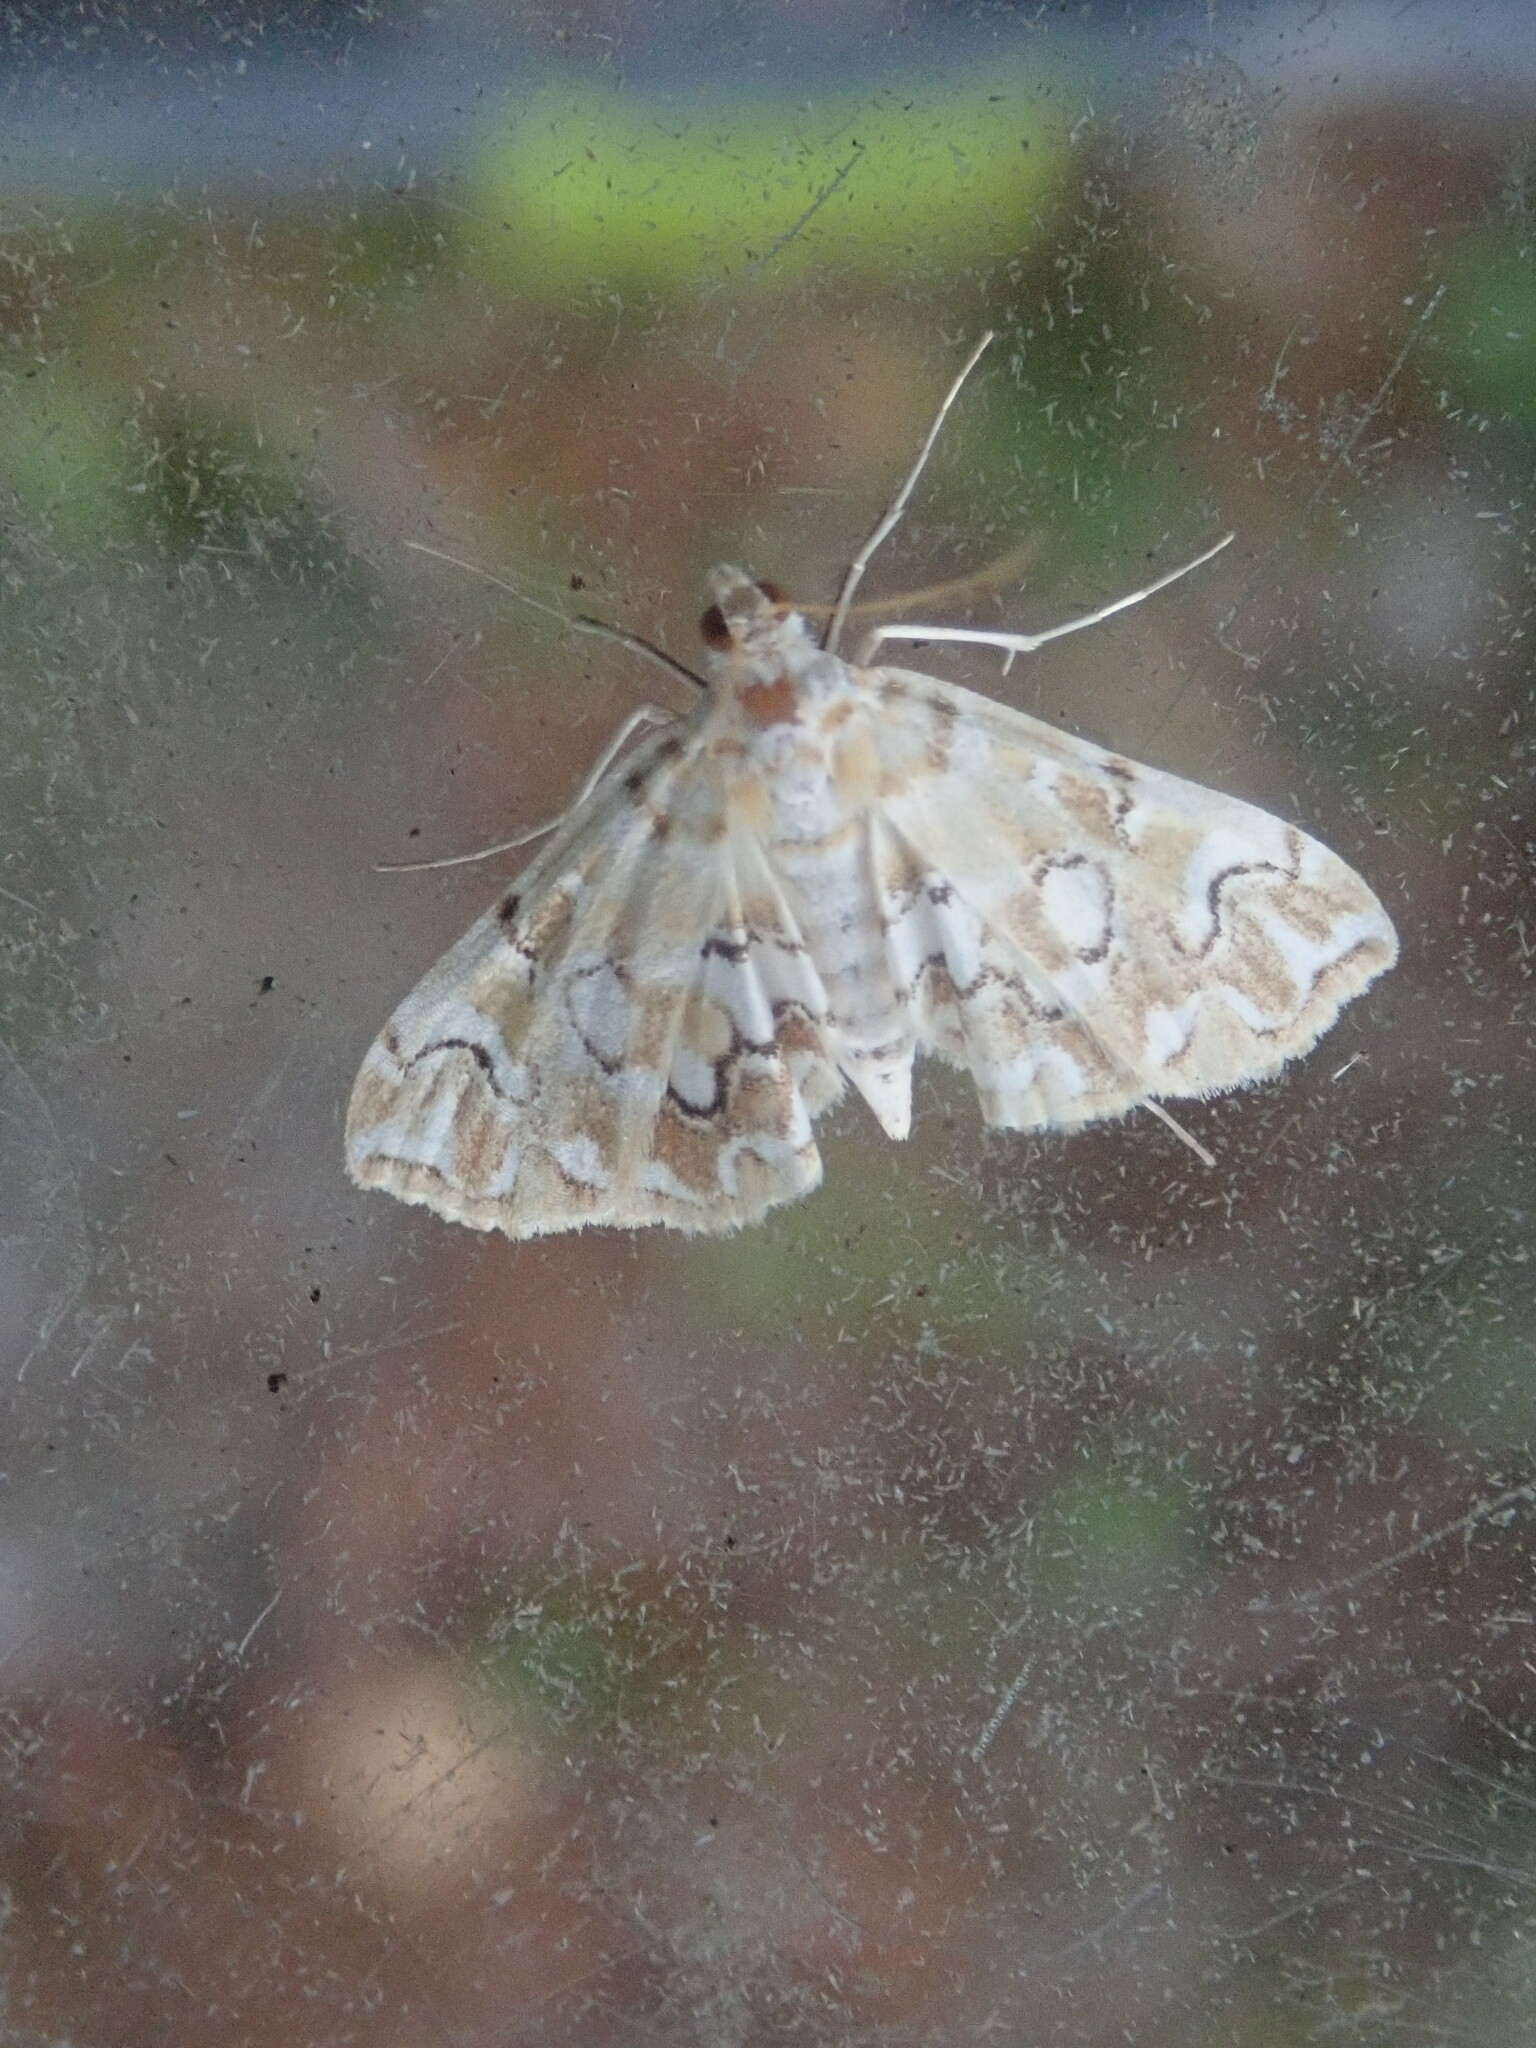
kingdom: Animalia
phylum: Arthropoda
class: Insecta
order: Lepidoptera
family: Crambidae
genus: Elophila
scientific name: Elophila icciusalis
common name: Pondside pyralid moth
